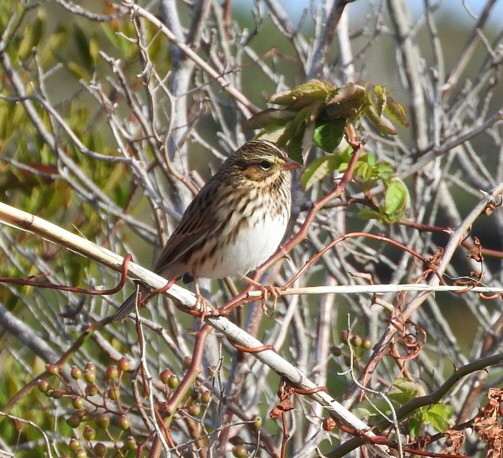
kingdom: Animalia
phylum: Chordata
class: Aves
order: Passeriformes
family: Passerellidae
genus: Passerculus
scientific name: Passerculus sandwichensis
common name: Savannah sparrow
